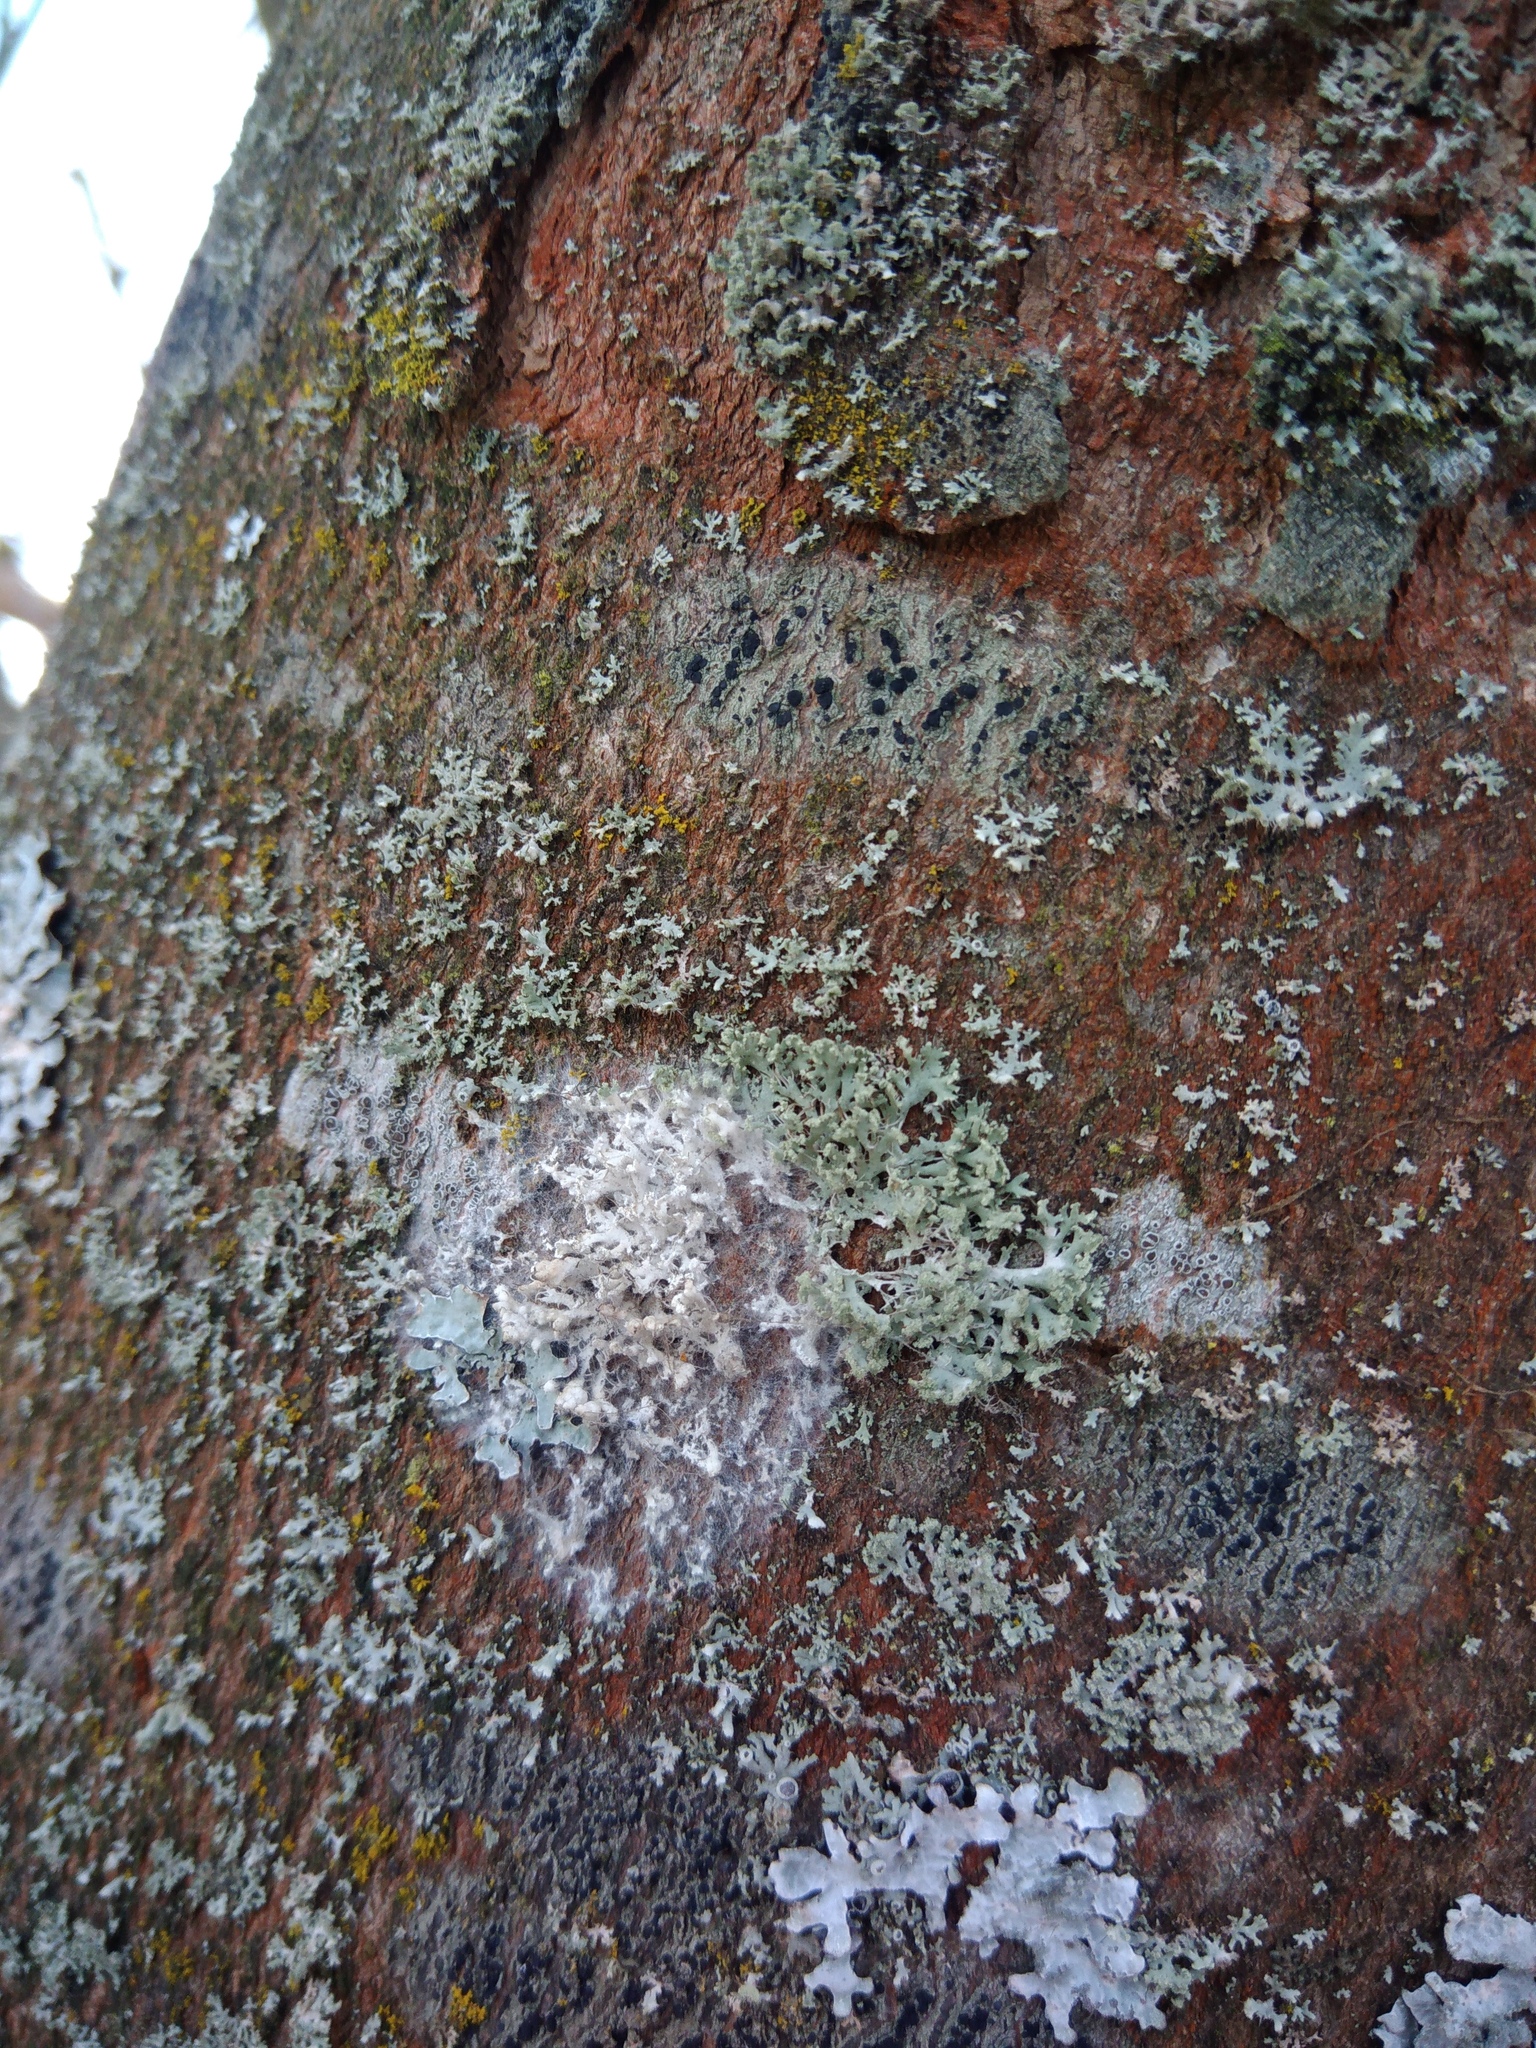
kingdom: Fungi
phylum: Basidiomycota
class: Agaricomycetes
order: Atheliales
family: Atheliaceae
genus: Athelia
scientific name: Athelia arachnoidea
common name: Candelabra duster
